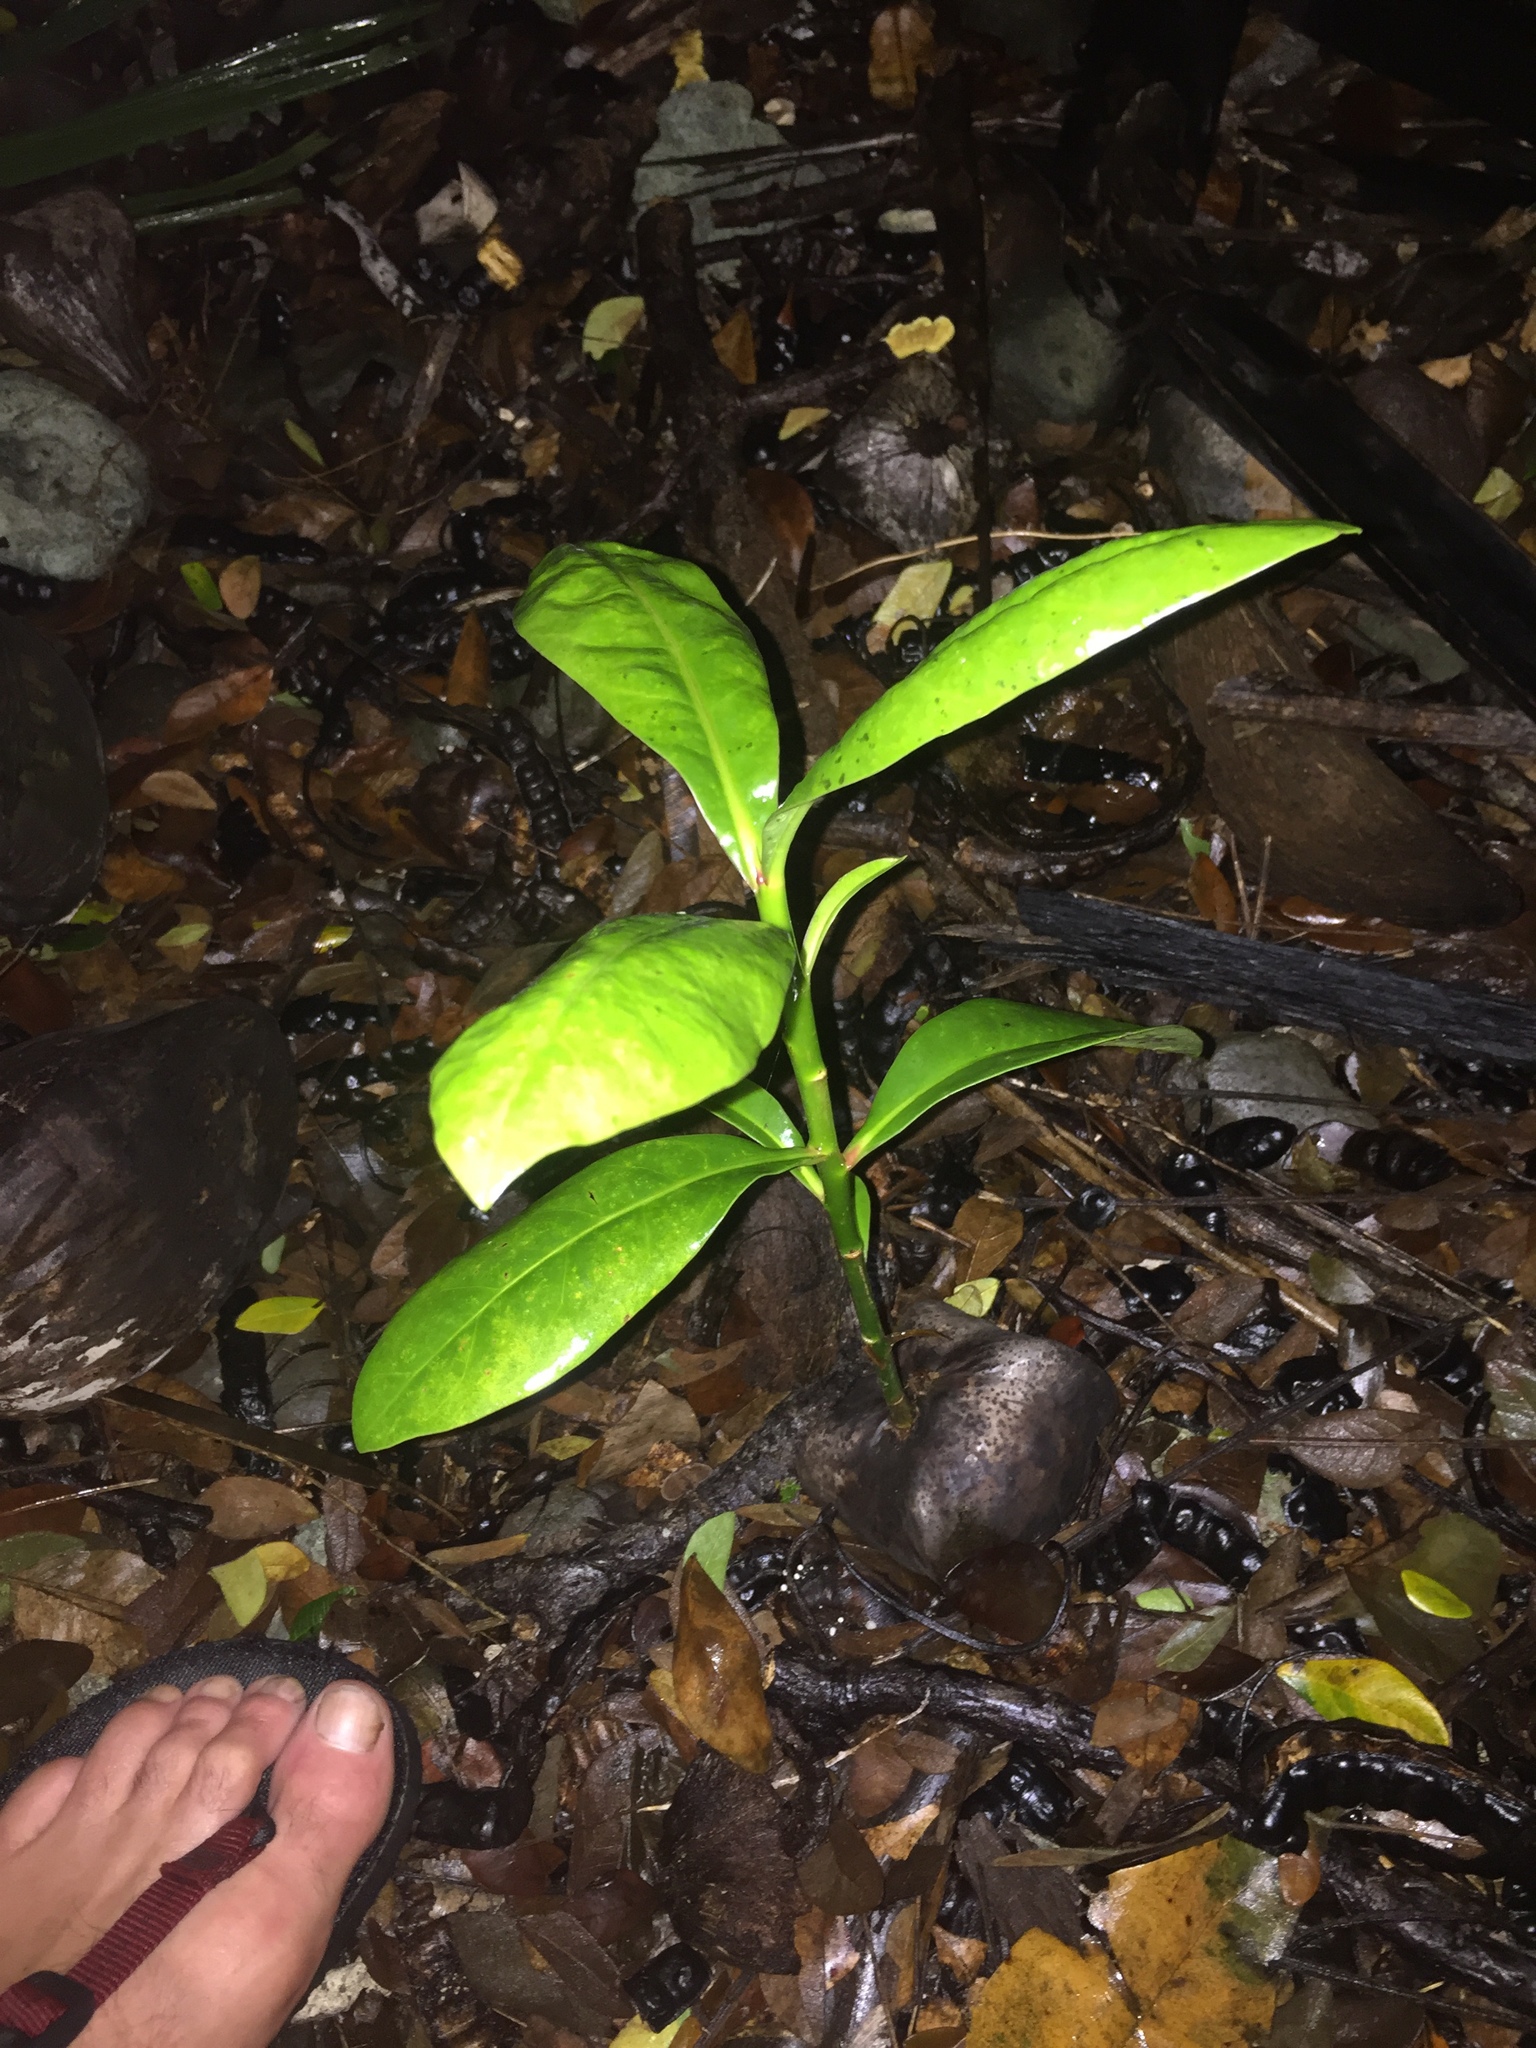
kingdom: Plantae
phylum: Tracheophyta
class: Magnoliopsida
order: Ericales
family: Lecythidaceae
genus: Barringtonia
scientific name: Barringtonia asiatica
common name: Mango-pine
